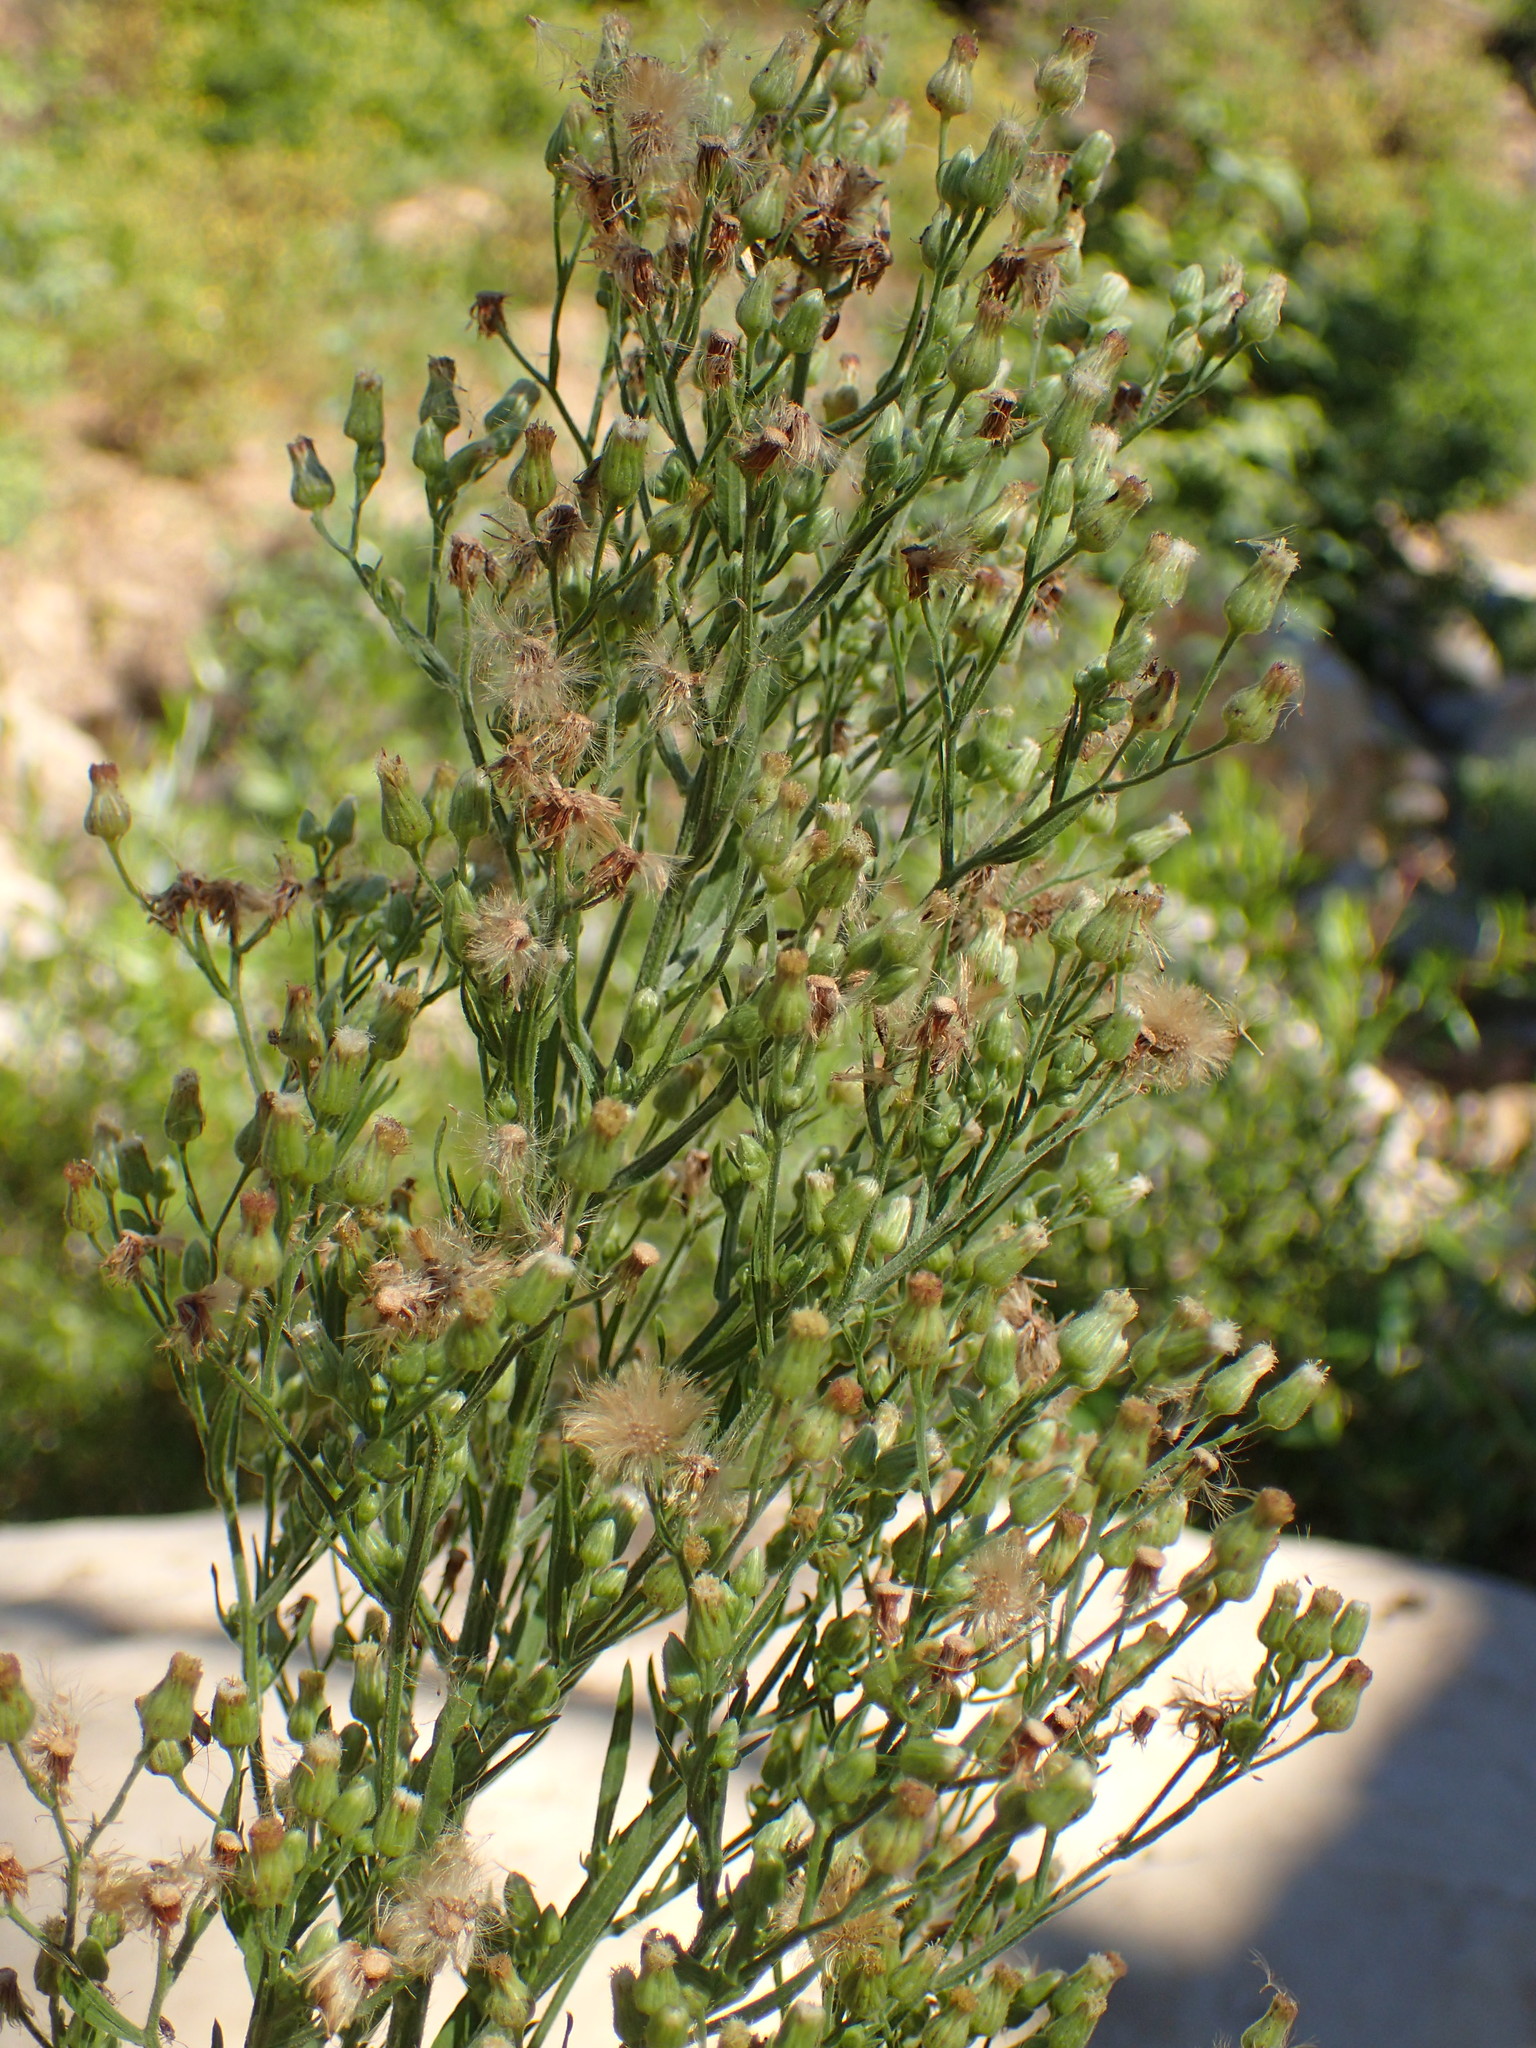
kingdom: Plantae
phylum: Tracheophyta
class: Magnoliopsida
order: Asterales
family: Asteraceae
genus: Erigeron
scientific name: Erigeron sumatrensis
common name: Daisy
